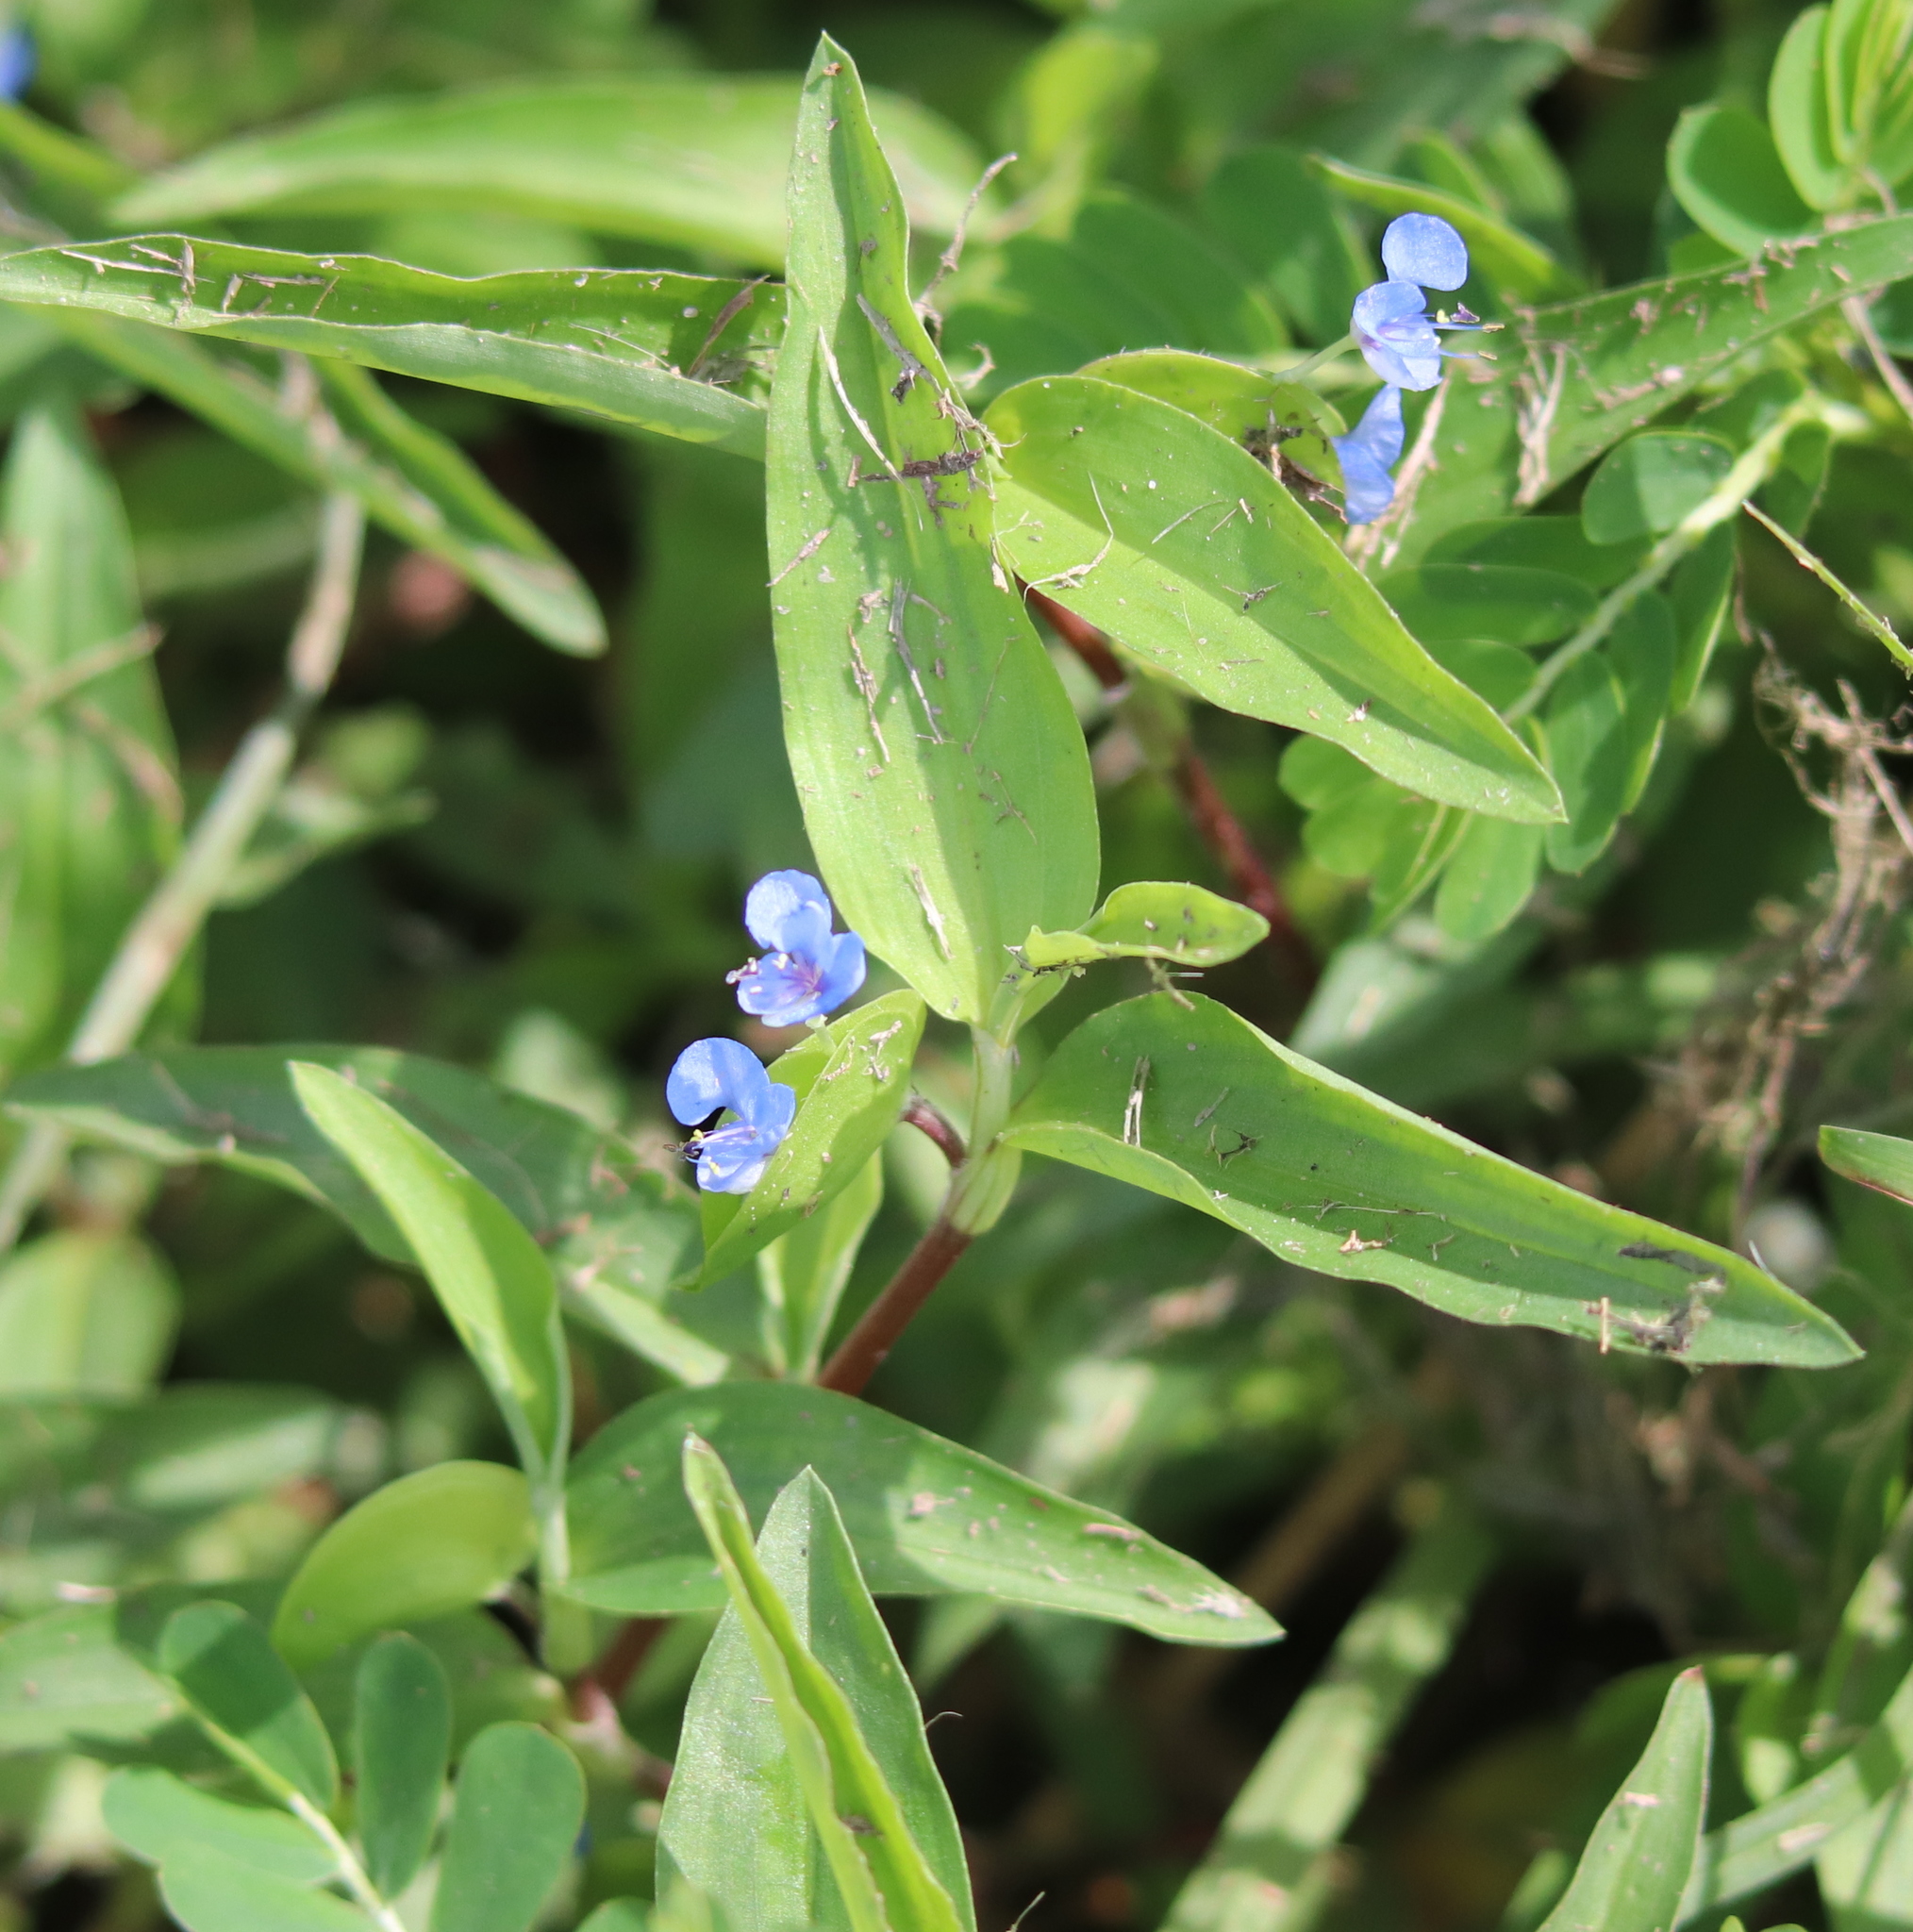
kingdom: Plantae
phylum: Tracheophyta
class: Liliopsida
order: Commelinales
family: Commelinaceae
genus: Commelina
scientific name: Commelina diffusa
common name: Climbing dayflower
